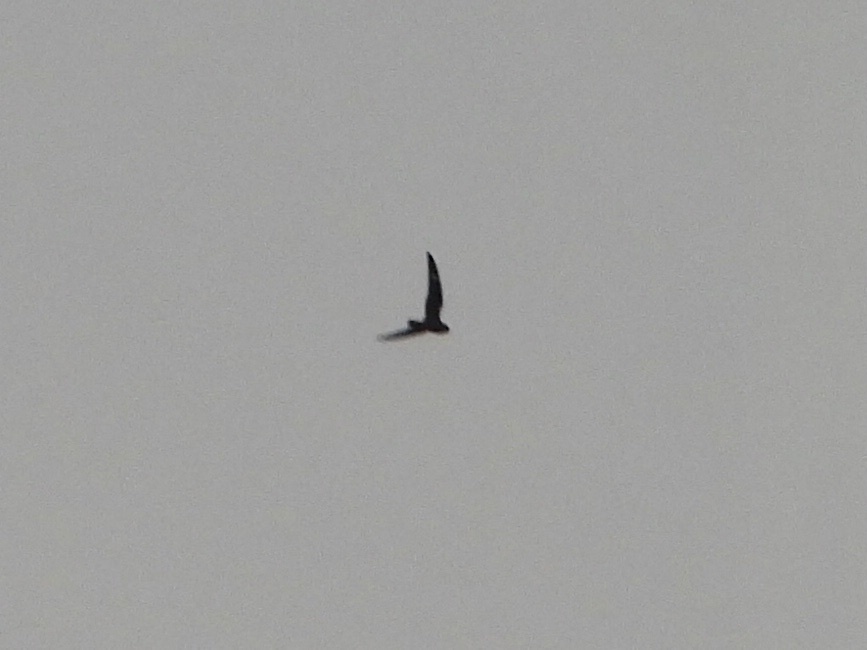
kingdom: Animalia
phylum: Chordata
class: Aves
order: Caprimulgiformes
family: Caprimulgidae
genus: Chordeiles
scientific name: Chordeiles minor
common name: Common nighthawk
